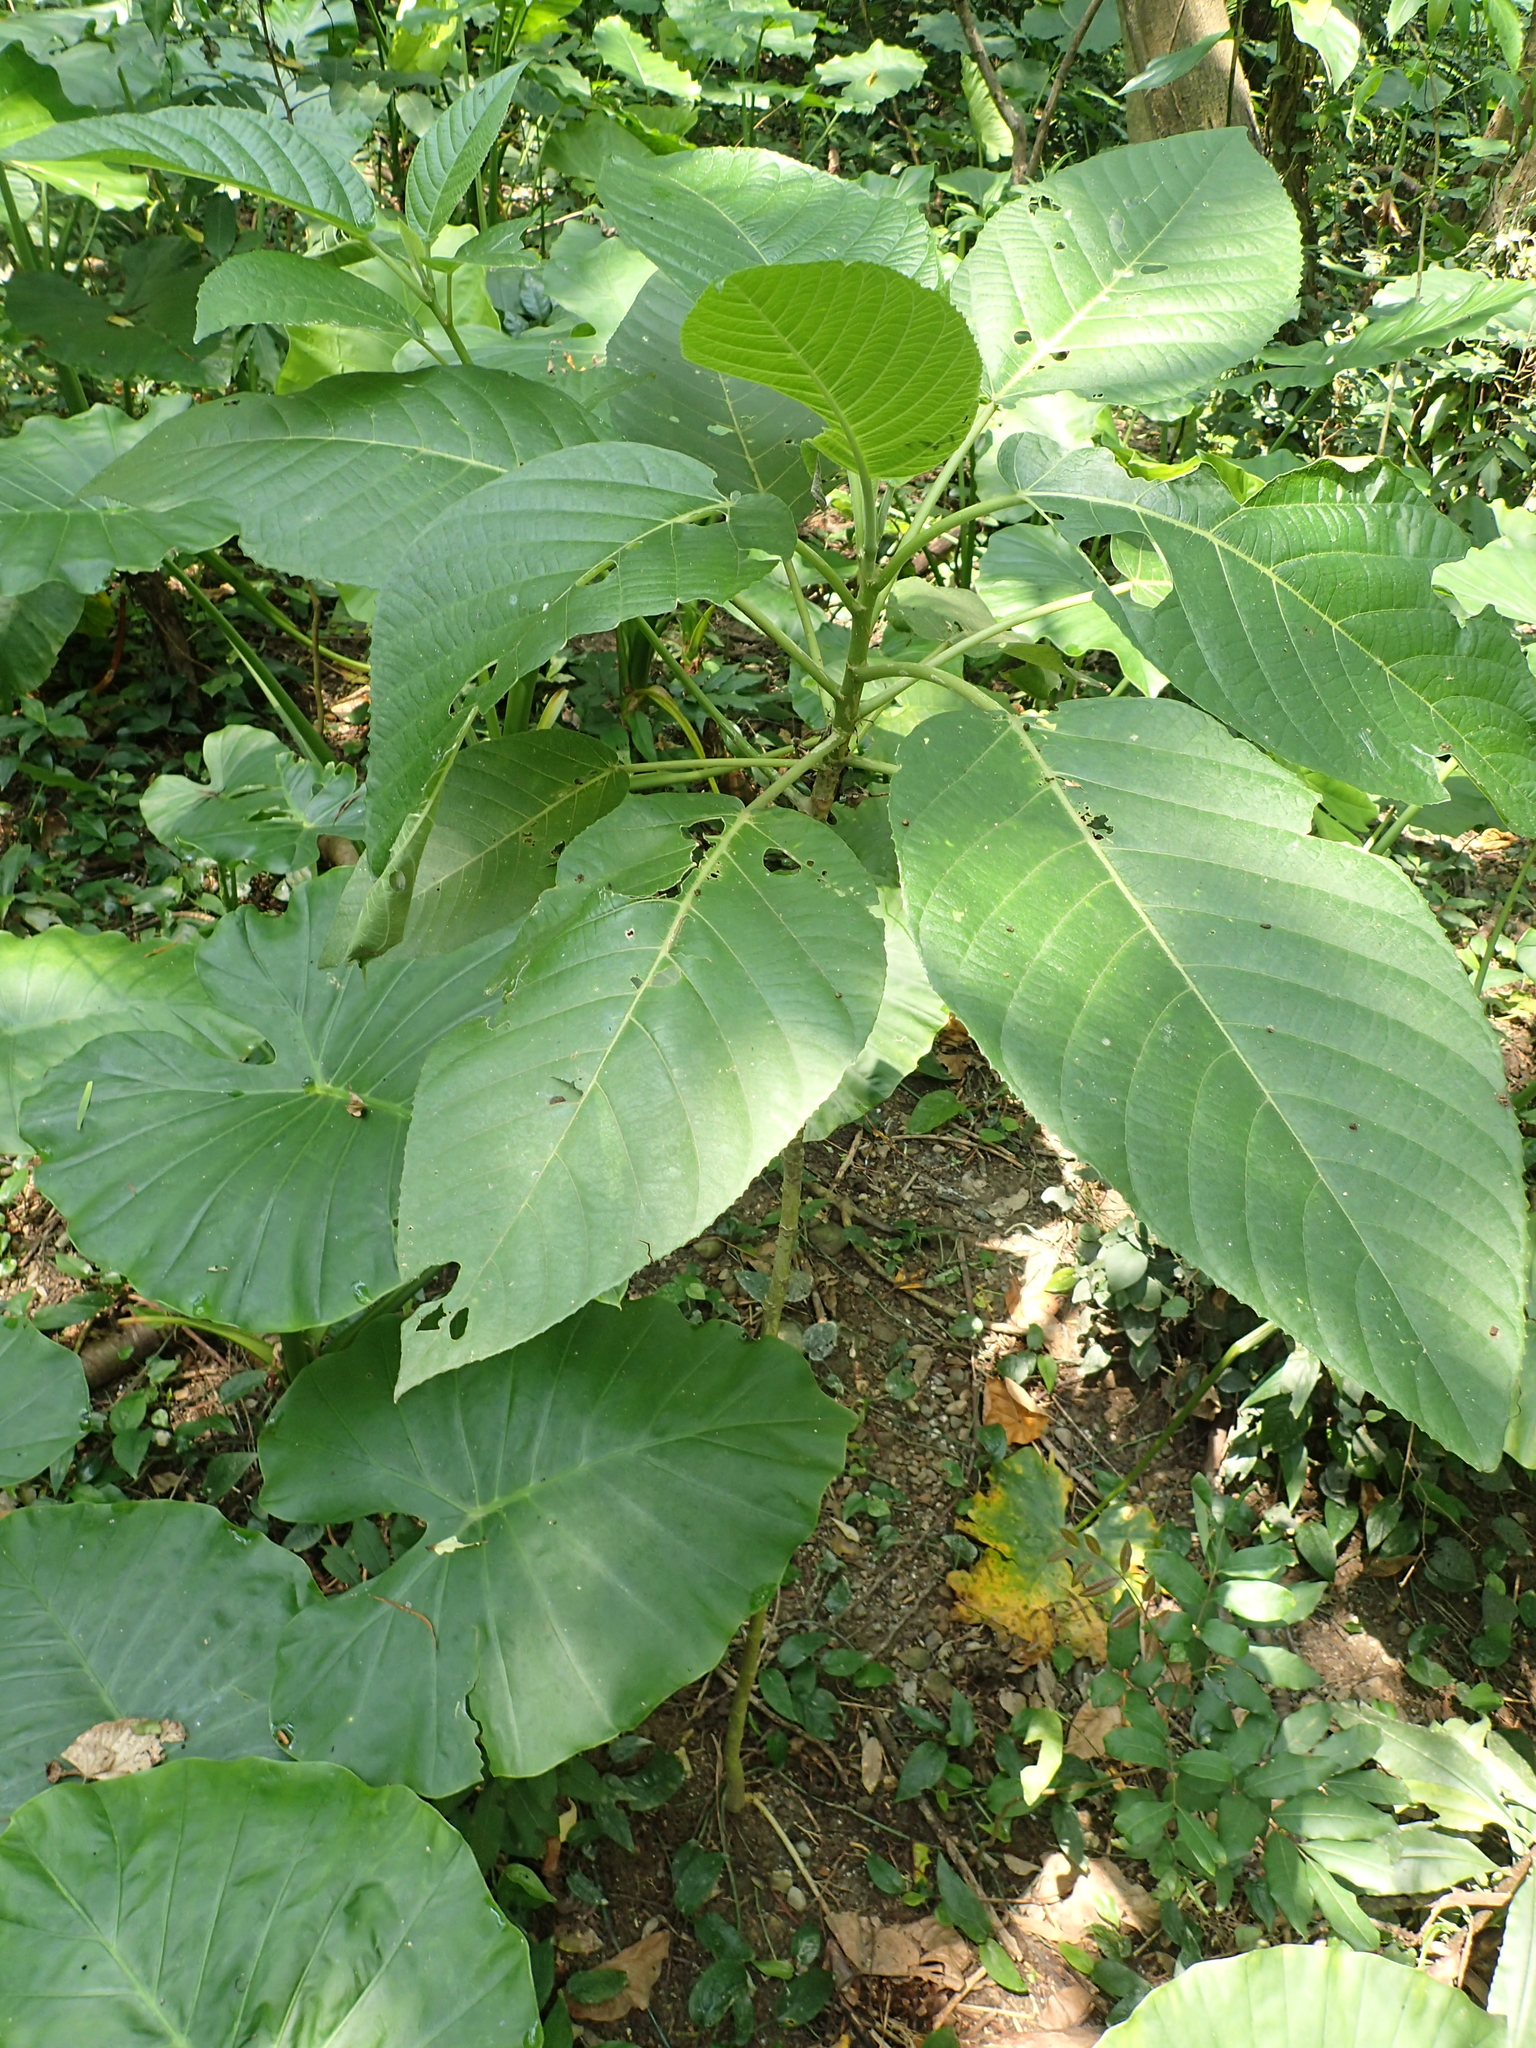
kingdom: Plantae
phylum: Tracheophyta
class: Magnoliopsida
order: Rosales
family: Urticaceae
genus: Dendrocnide
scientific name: Dendrocnide meyeniana
